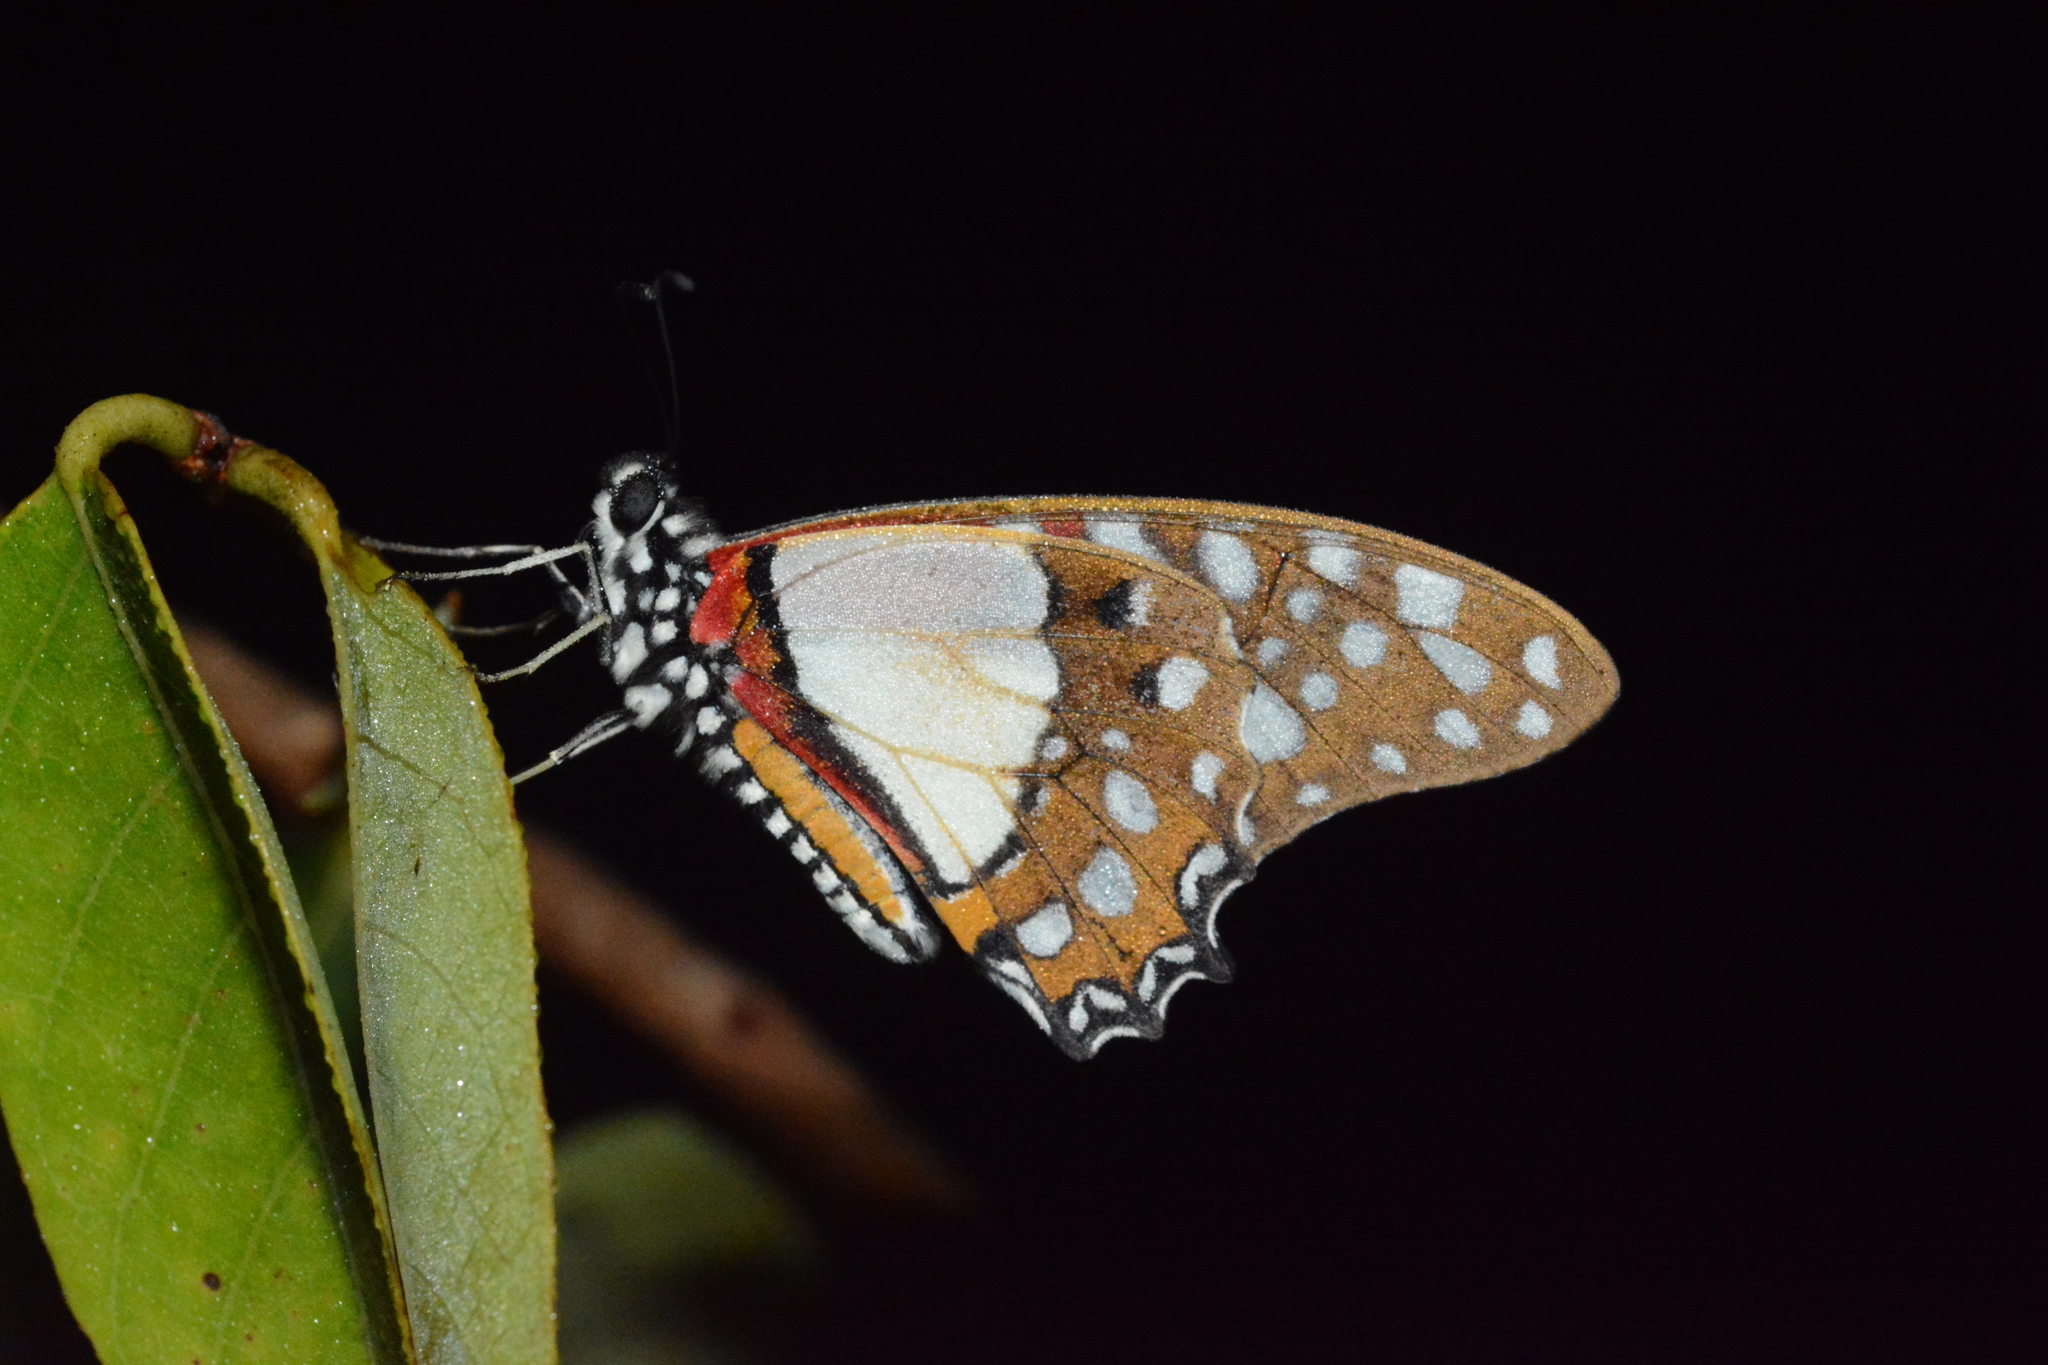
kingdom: Animalia
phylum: Arthropoda
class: Insecta
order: Lepidoptera
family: Papilionidae
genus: Graphium
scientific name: Graphium angolanus
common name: Angola white-lady swordtail
